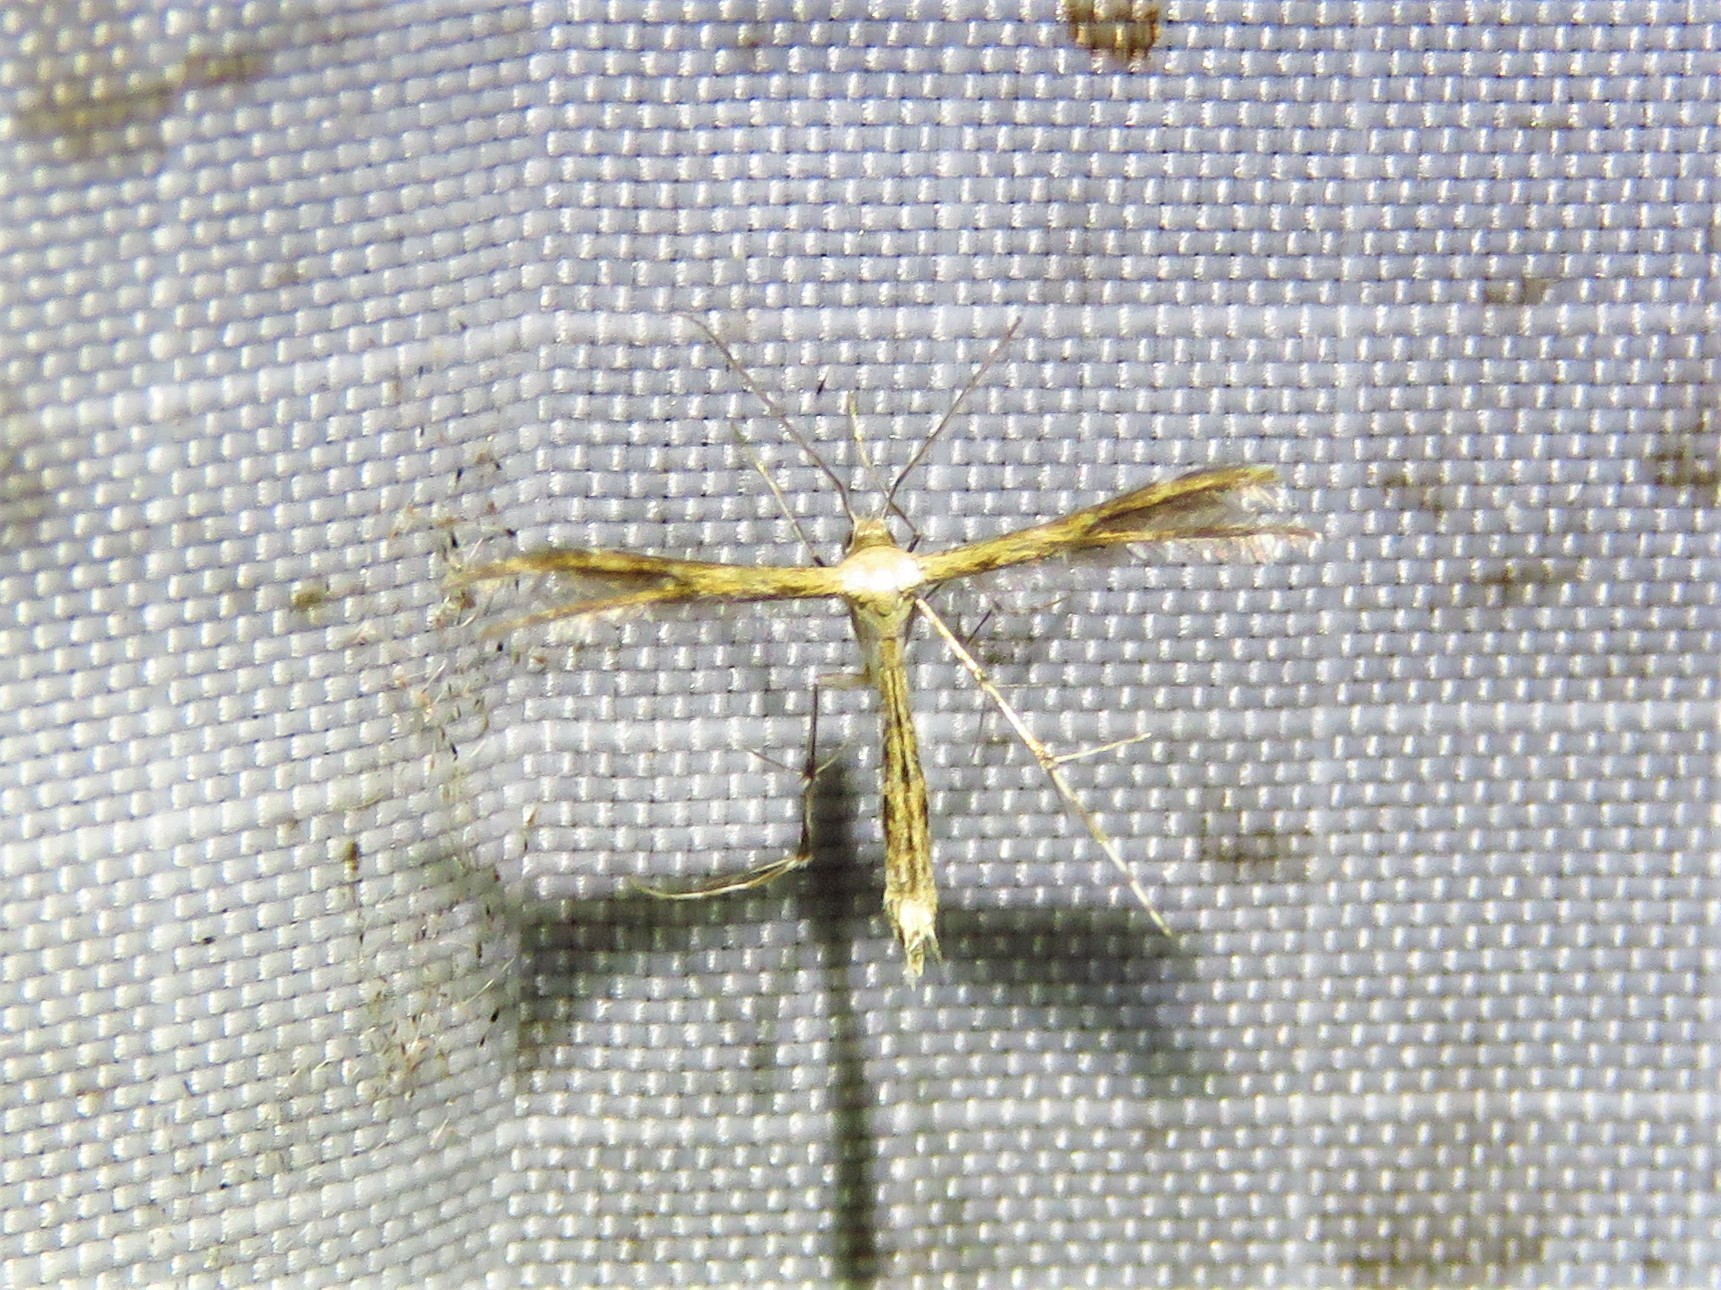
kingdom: Animalia
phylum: Arthropoda
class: Insecta
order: Lepidoptera
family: Pterophoridae
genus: Buckleria
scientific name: Buckleria parvulus
